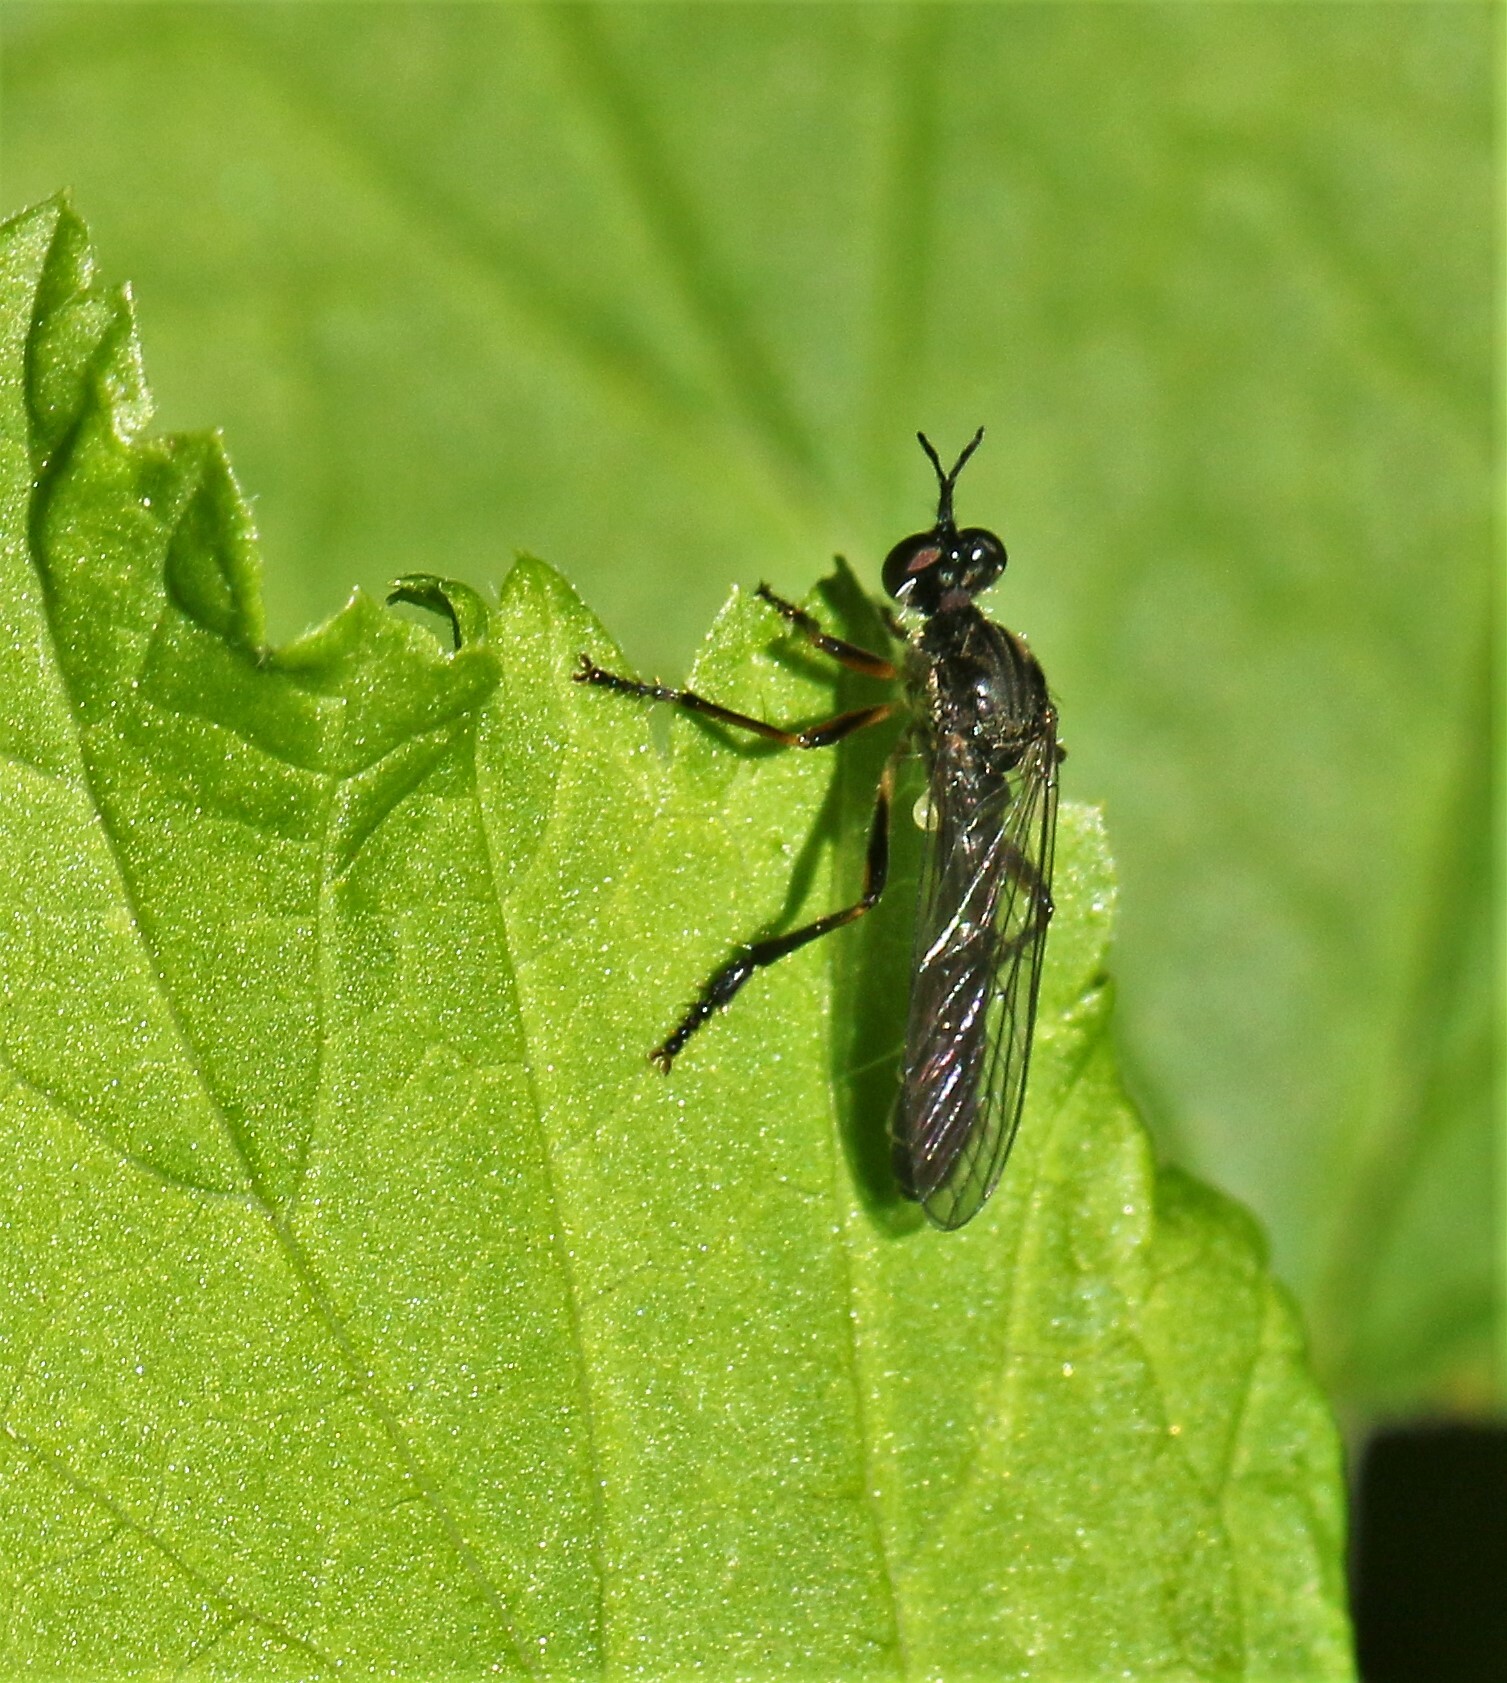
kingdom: Animalia
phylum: Arthropoda
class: Insecta
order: Diptera
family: Asilidae
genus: Dioctria
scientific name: Dioctria hyalipennis
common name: Stripe-legged robberfly
